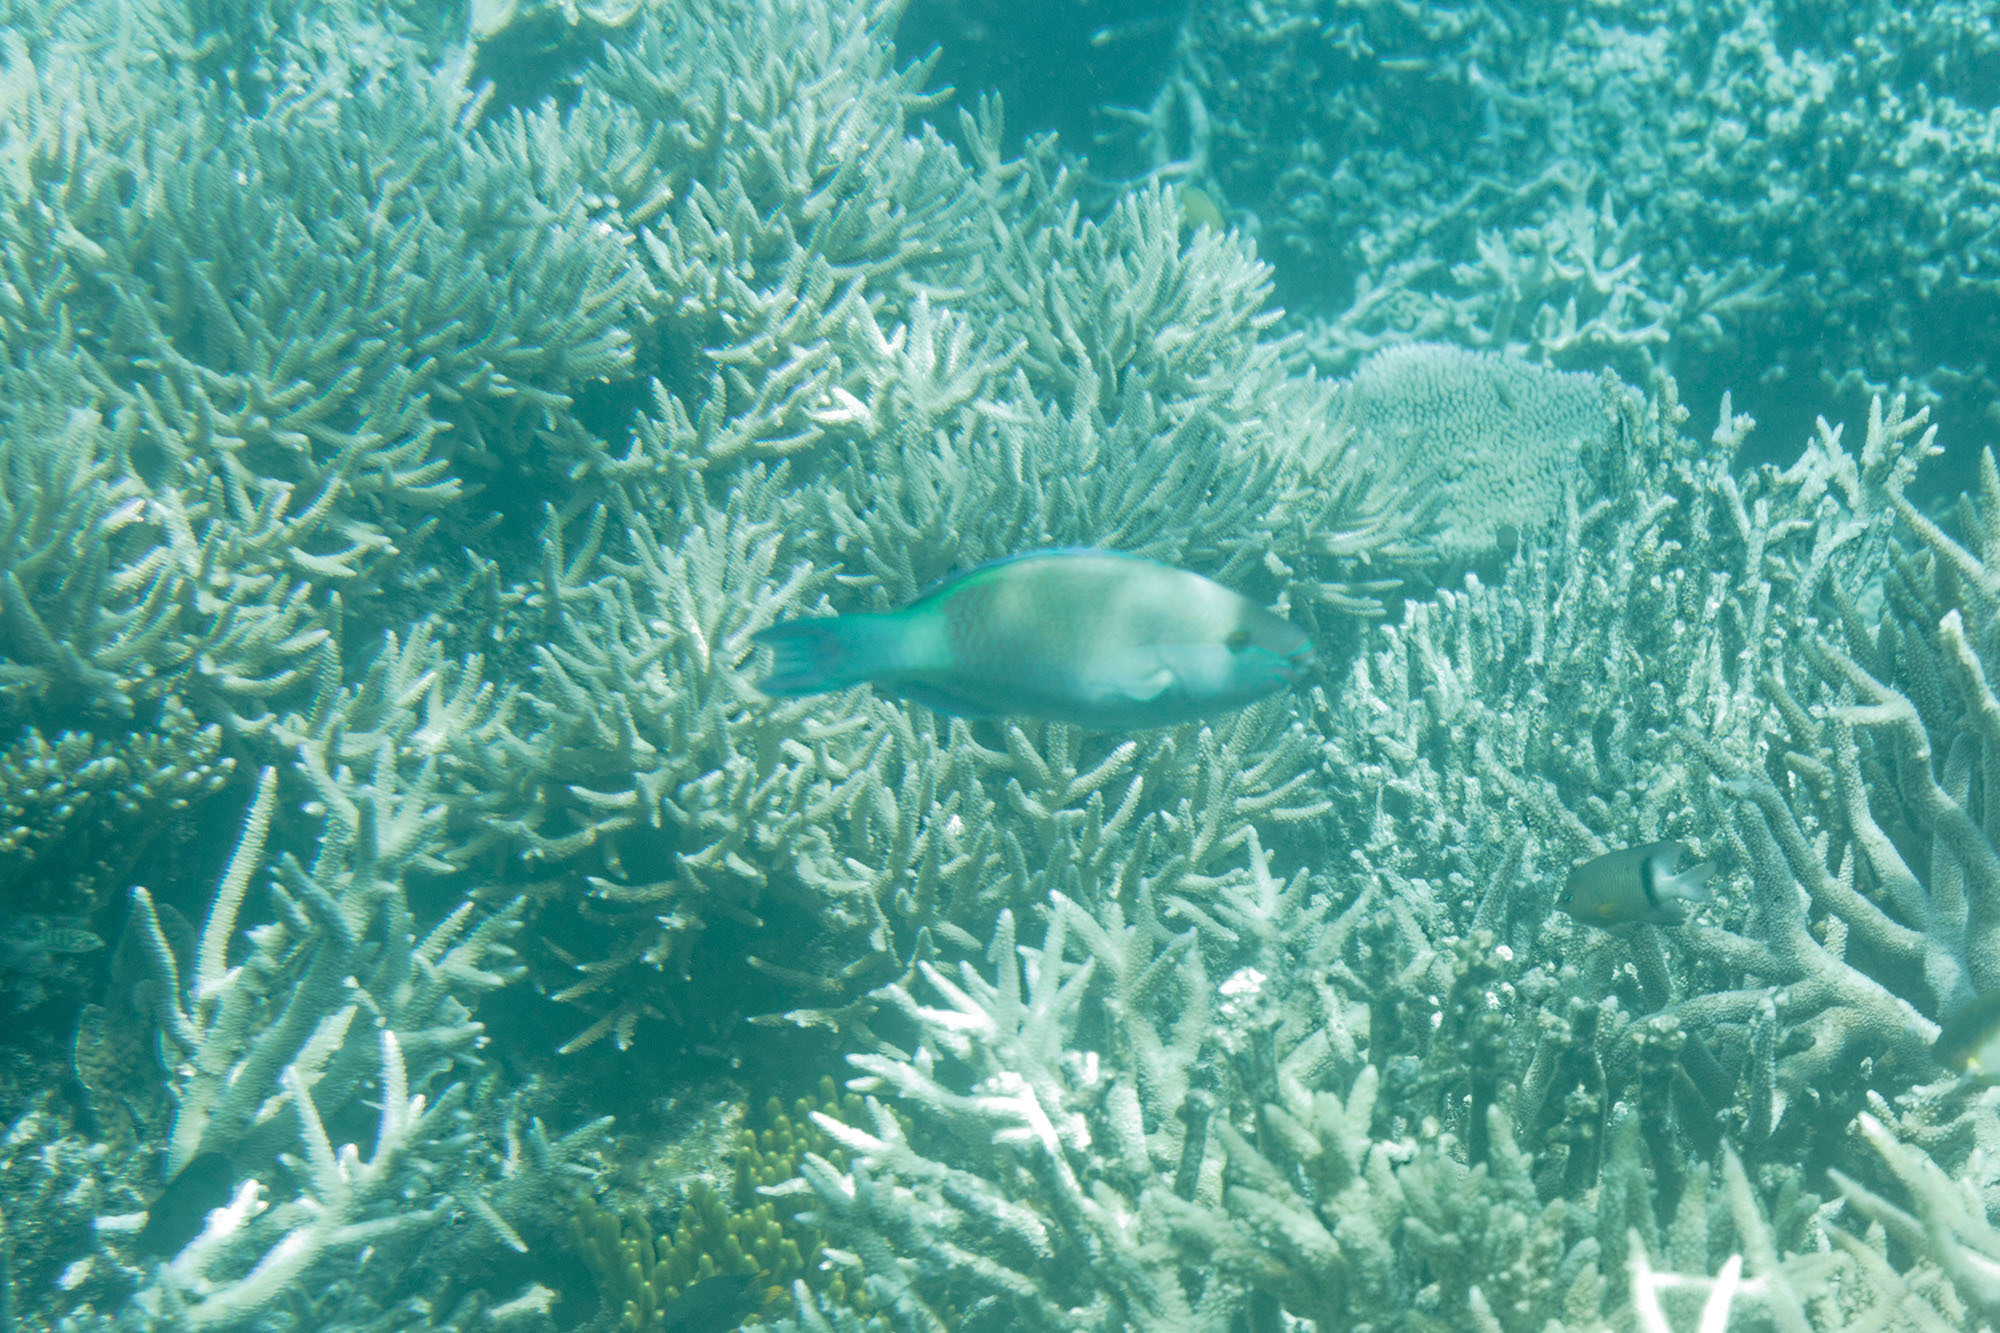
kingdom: Animalia
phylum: Chordata
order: Perciformes
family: Scaridae
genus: Scarus
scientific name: Scarus frenatus
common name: Bridled parrotfish
